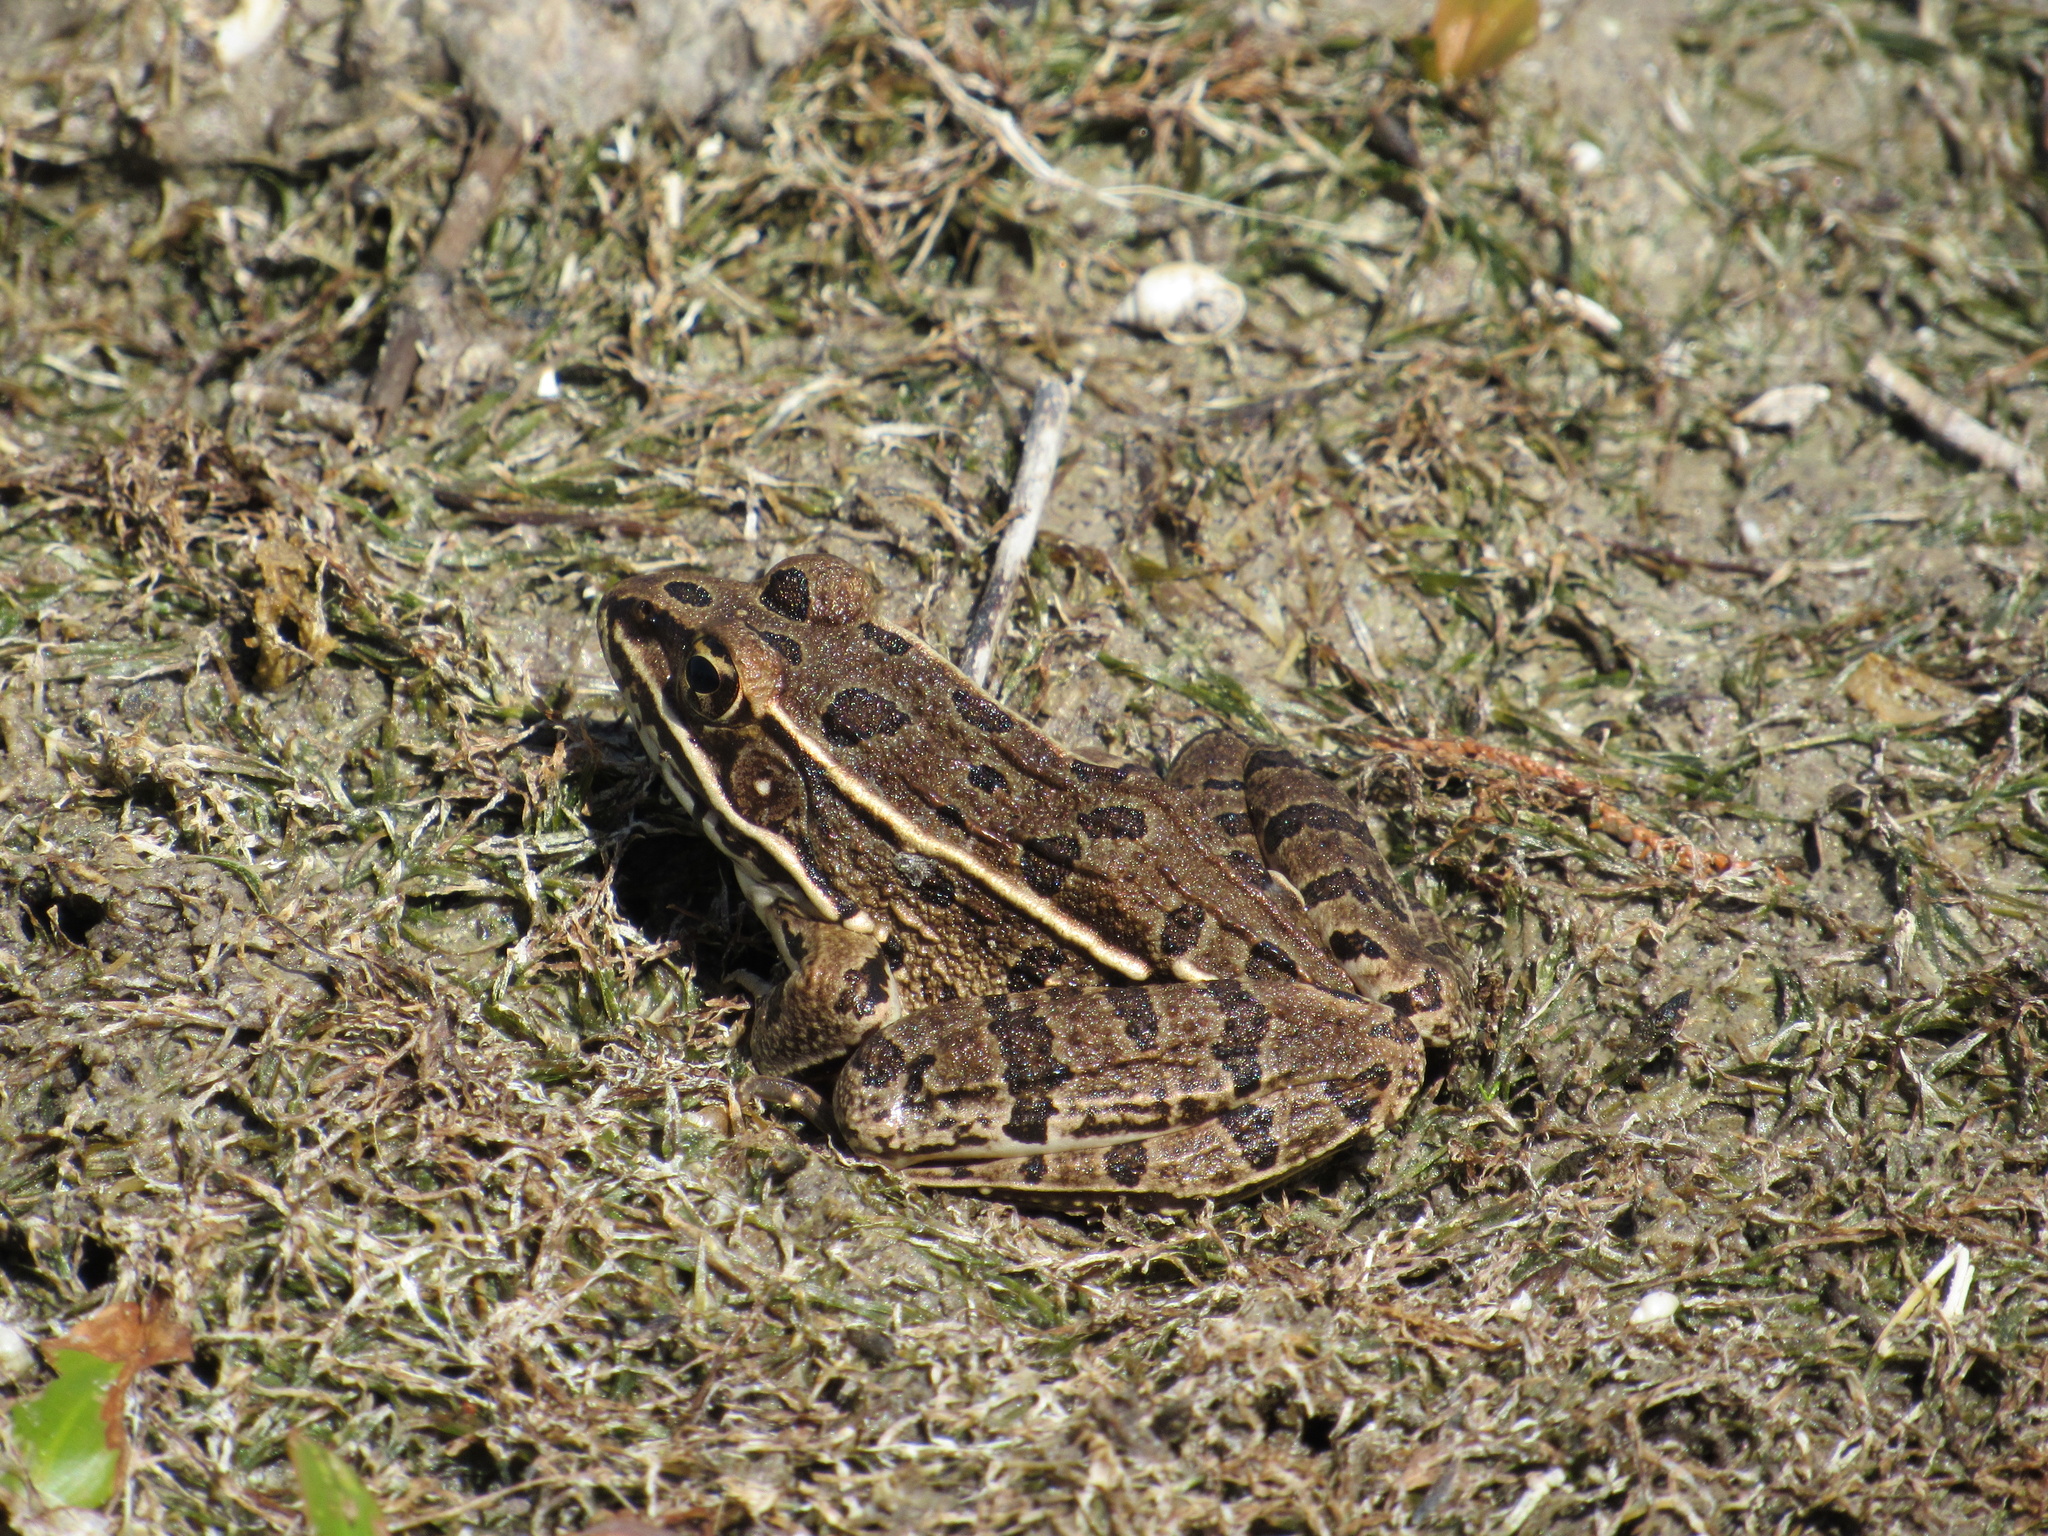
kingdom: Animalia
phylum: Chordata
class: Amphibia
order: Anura
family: Ranidae
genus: Lithobates
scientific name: Lithobates blairi
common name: Plains leopard frog
